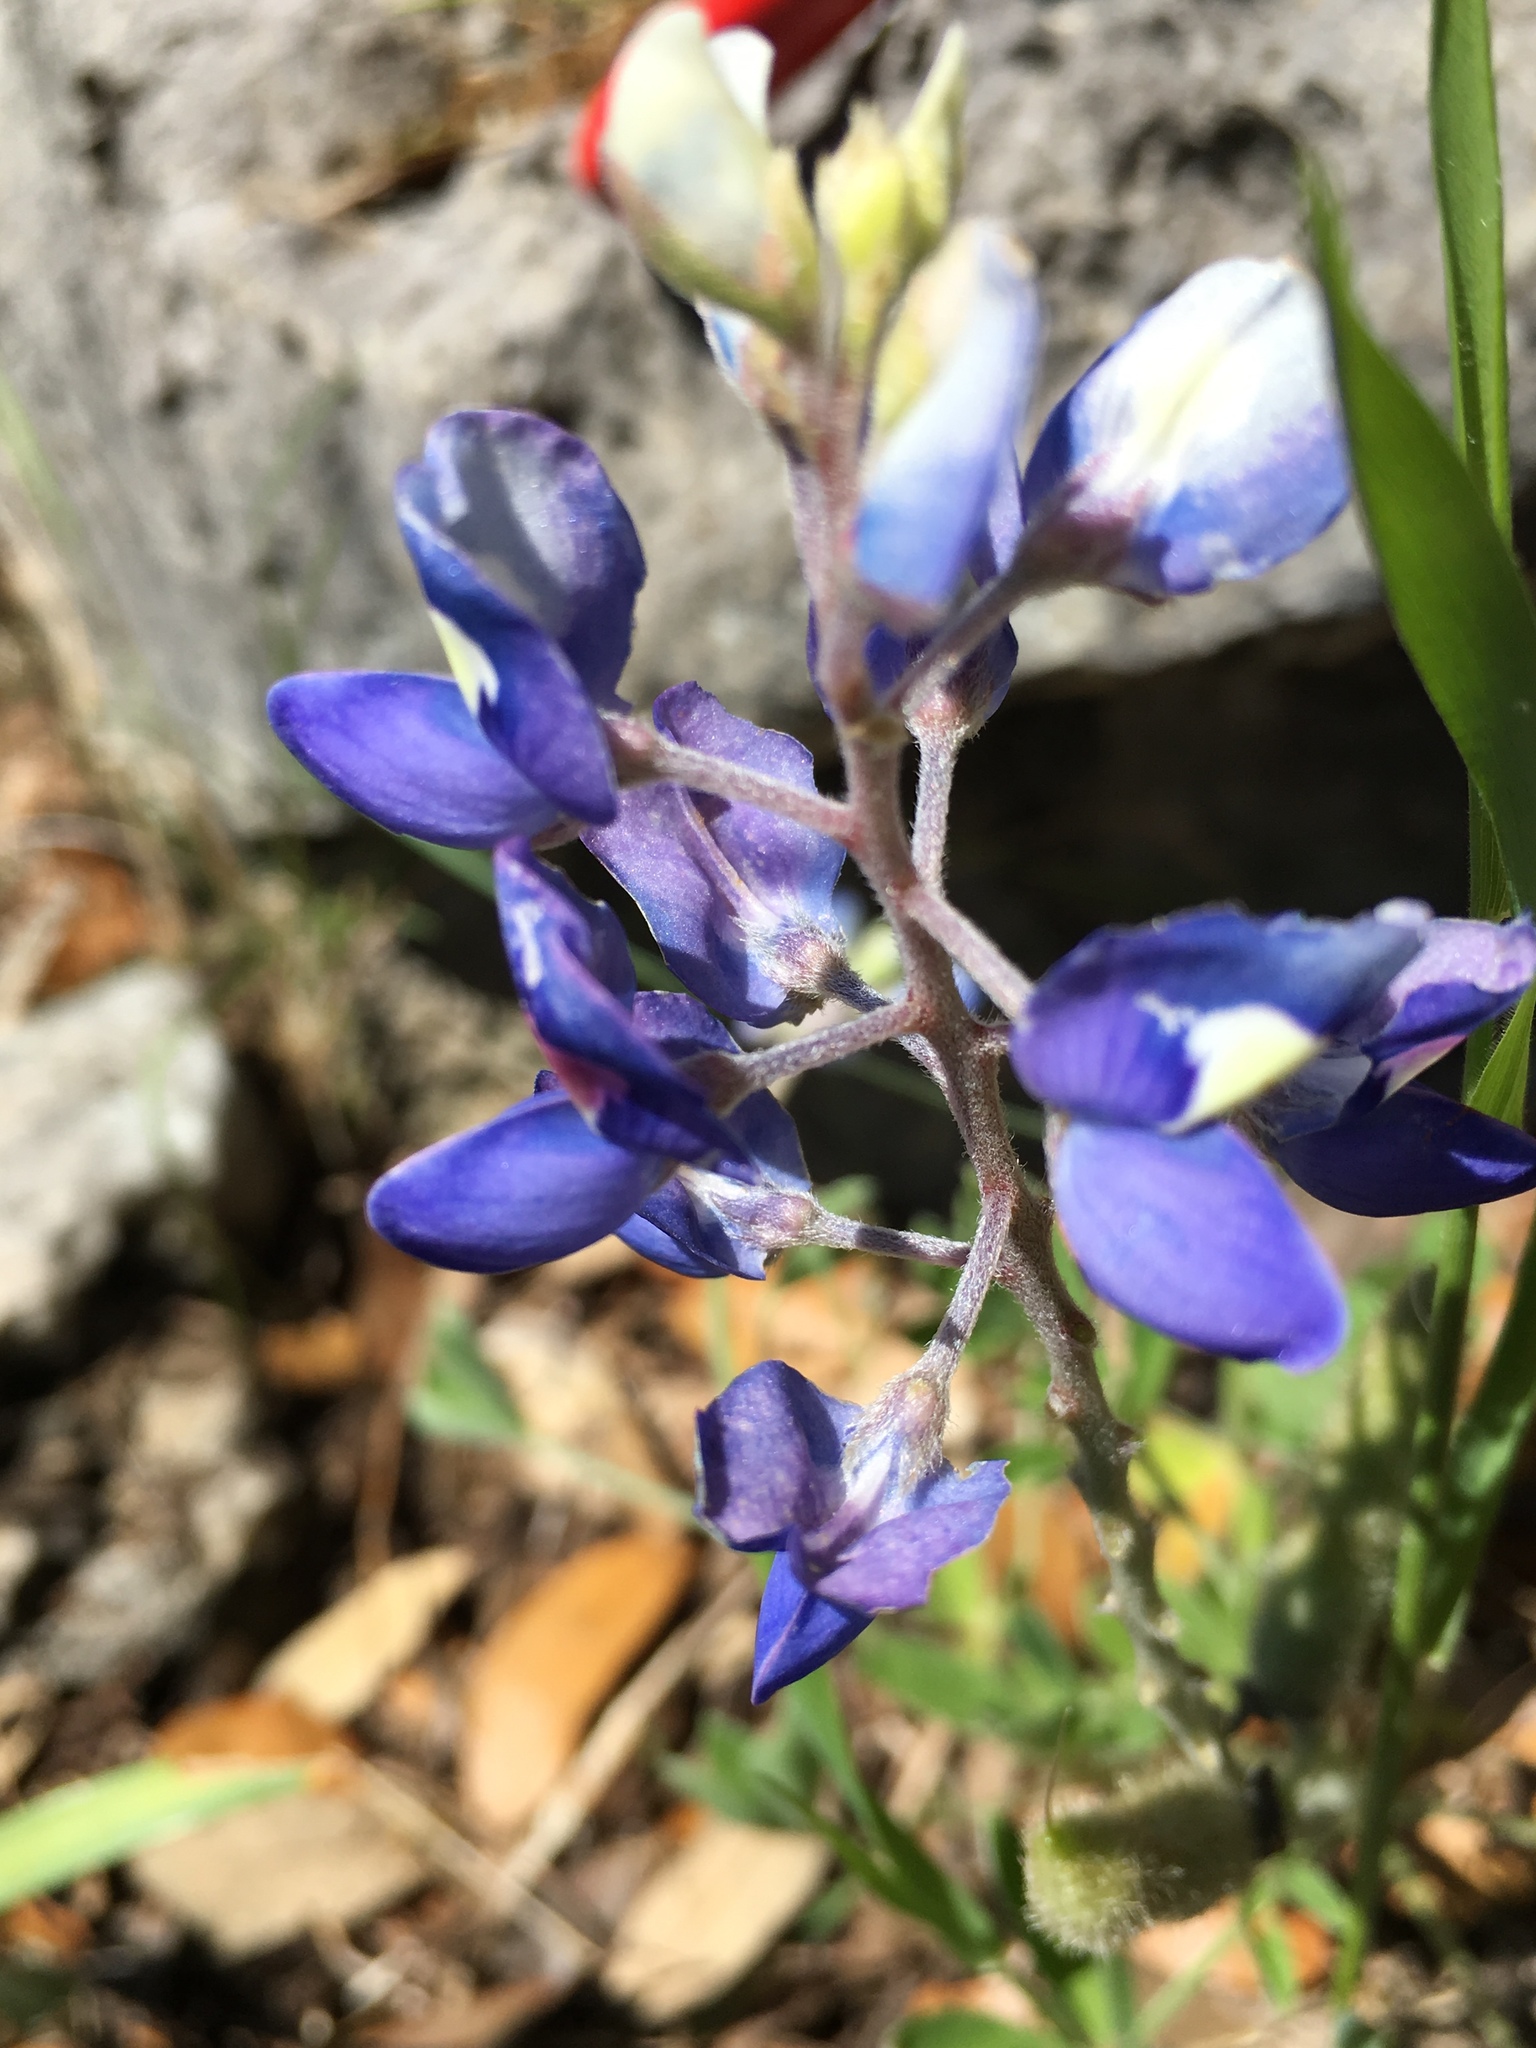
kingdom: Plantae
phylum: Tracheophyta
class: Magnoliopsida
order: Fabales
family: Fabaceae
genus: Lupinus
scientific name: Lupinus texensis
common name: Texas bluebonnet
